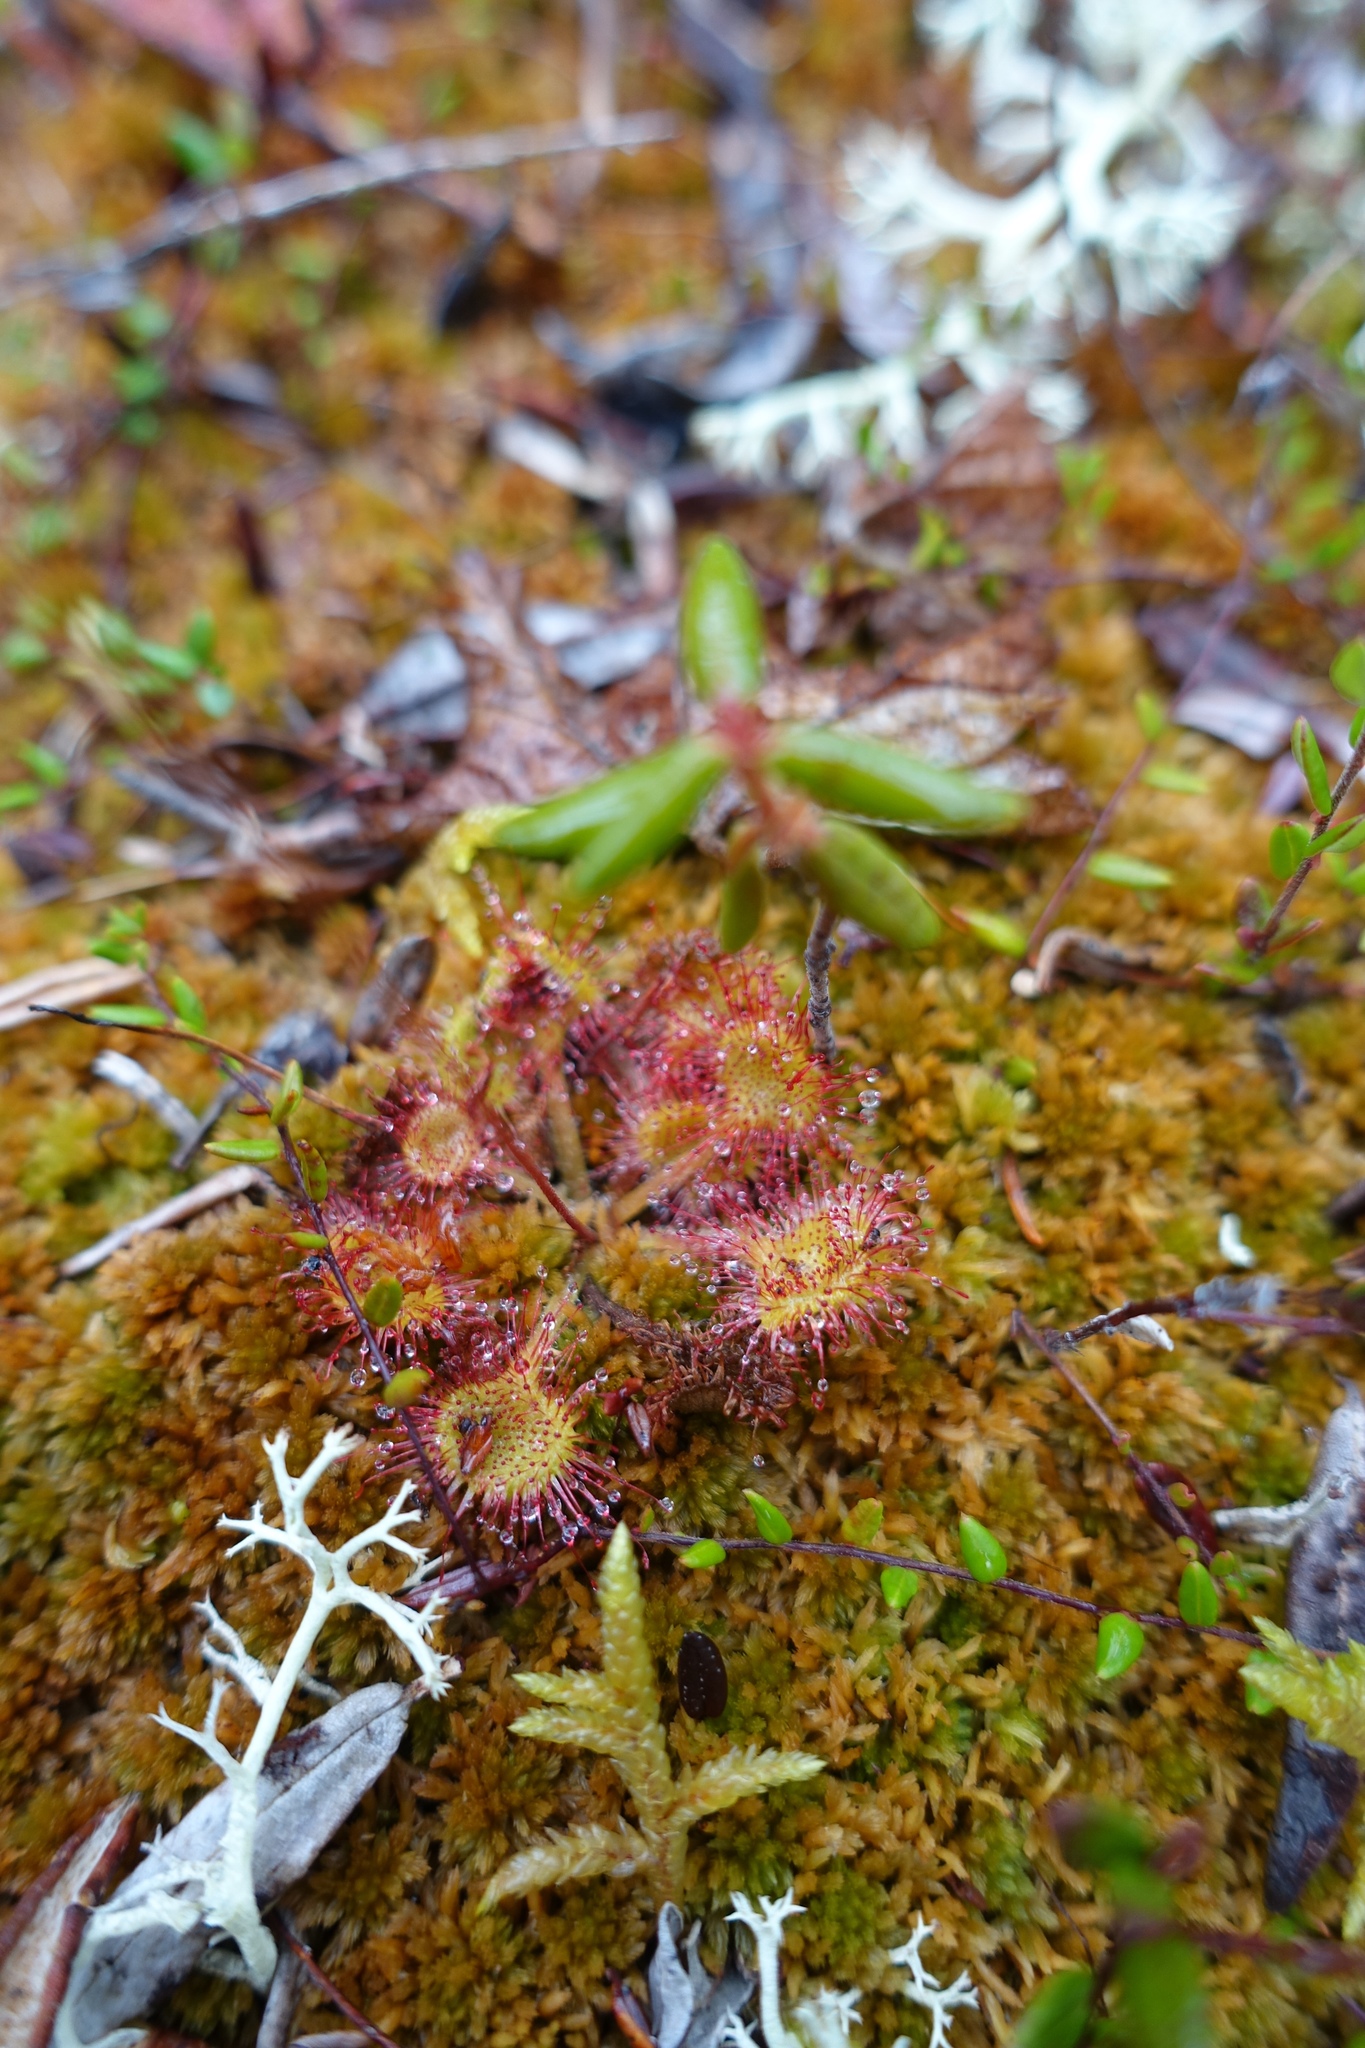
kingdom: Plantae
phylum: Tracheophyta
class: Magnoliopsida
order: Caryophyllales
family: Droseraceae
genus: Drosera
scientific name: Drosera rotundifolia
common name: Round-leaved sundew
